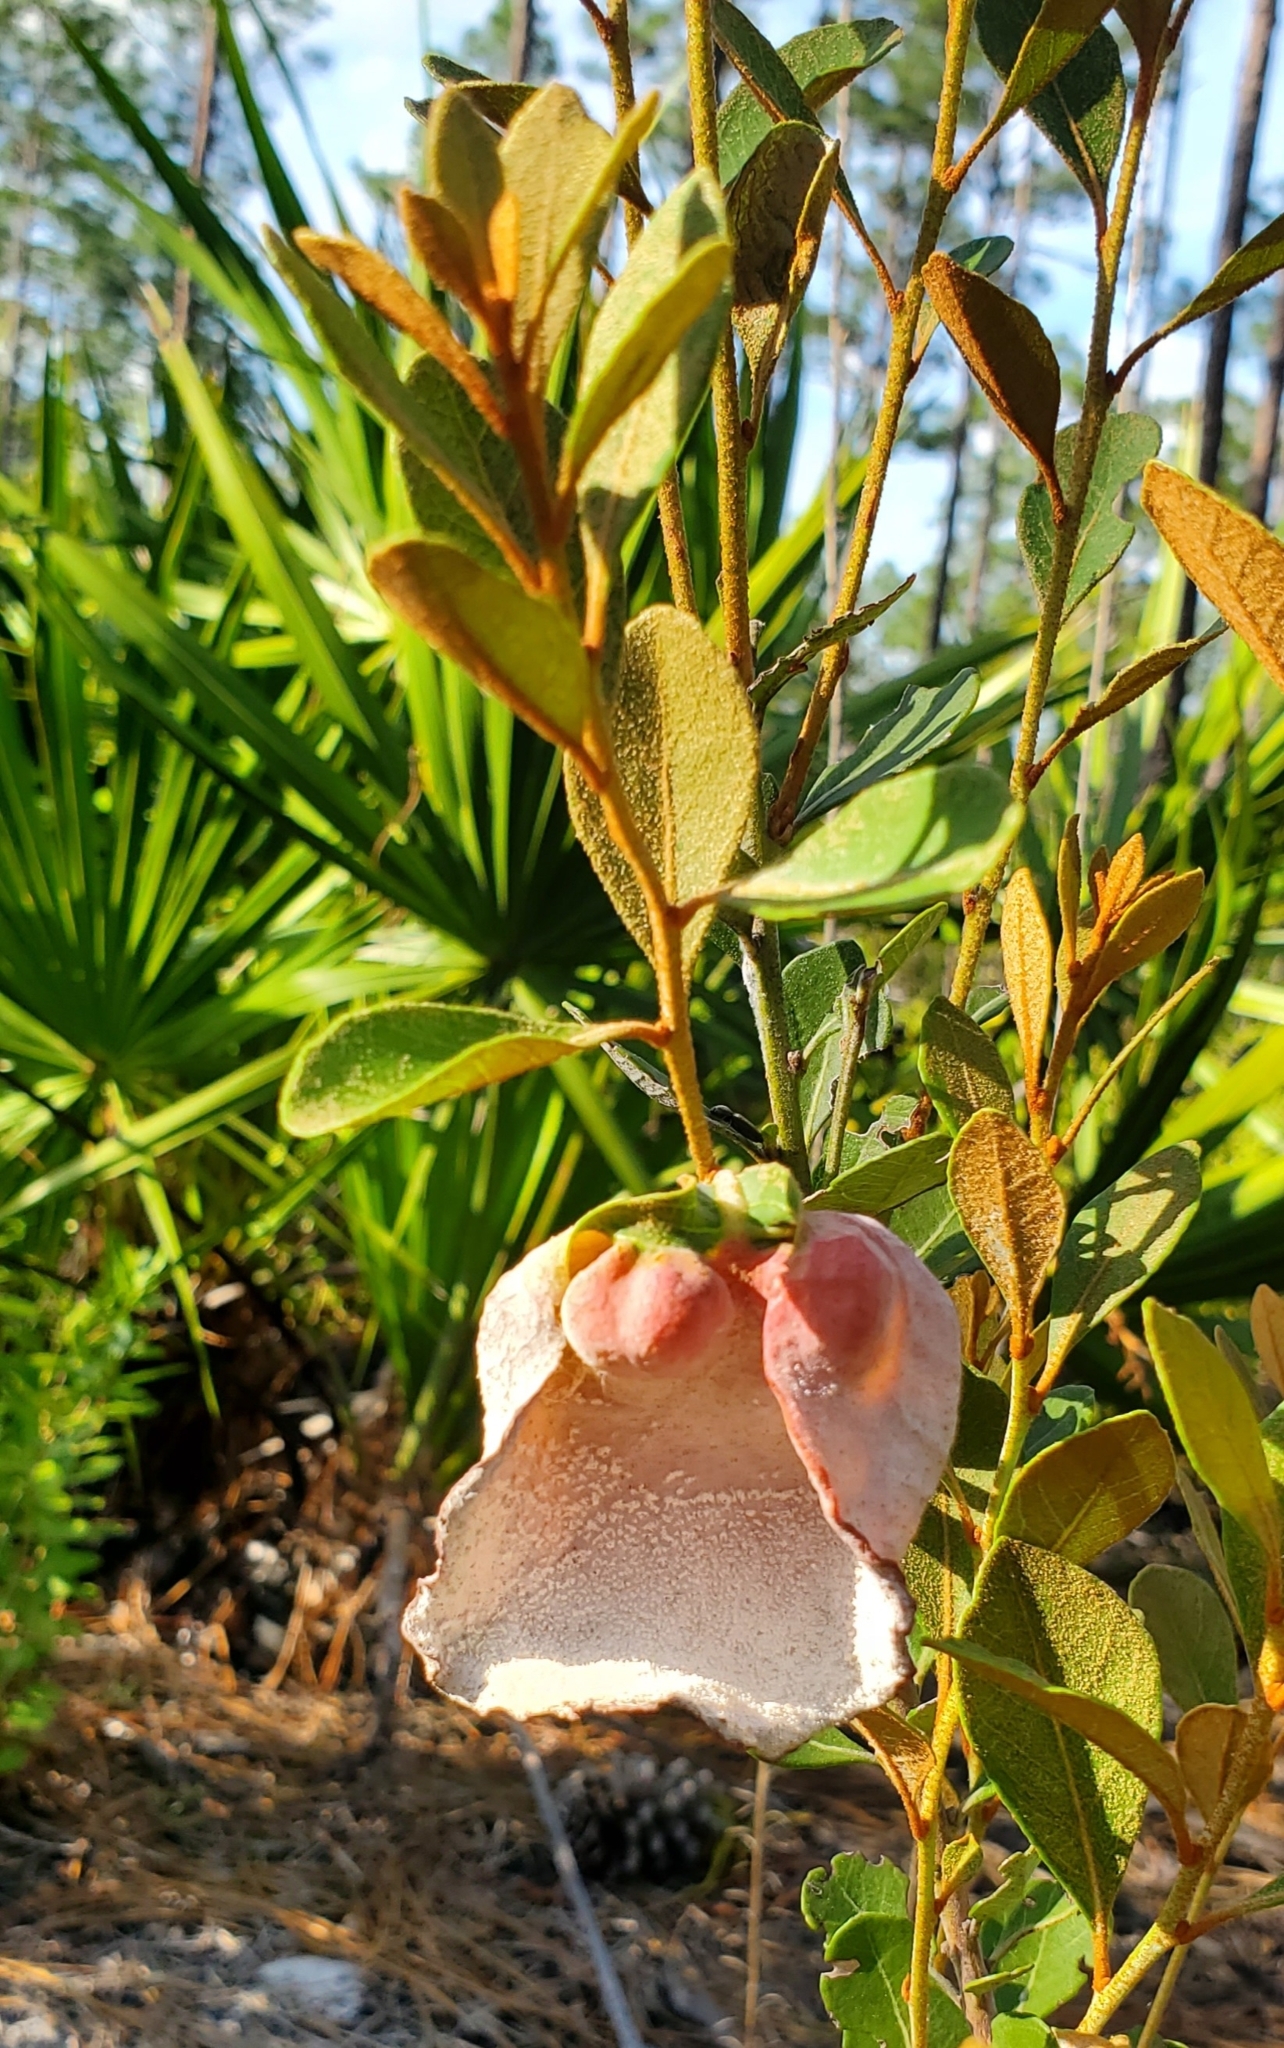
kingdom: Fungi
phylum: Basidiomycota
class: Exobasidiomycetes
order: Exobasidiales
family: Exobasidiaceae
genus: Exobasidium
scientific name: Exobasidium ferrugineae
